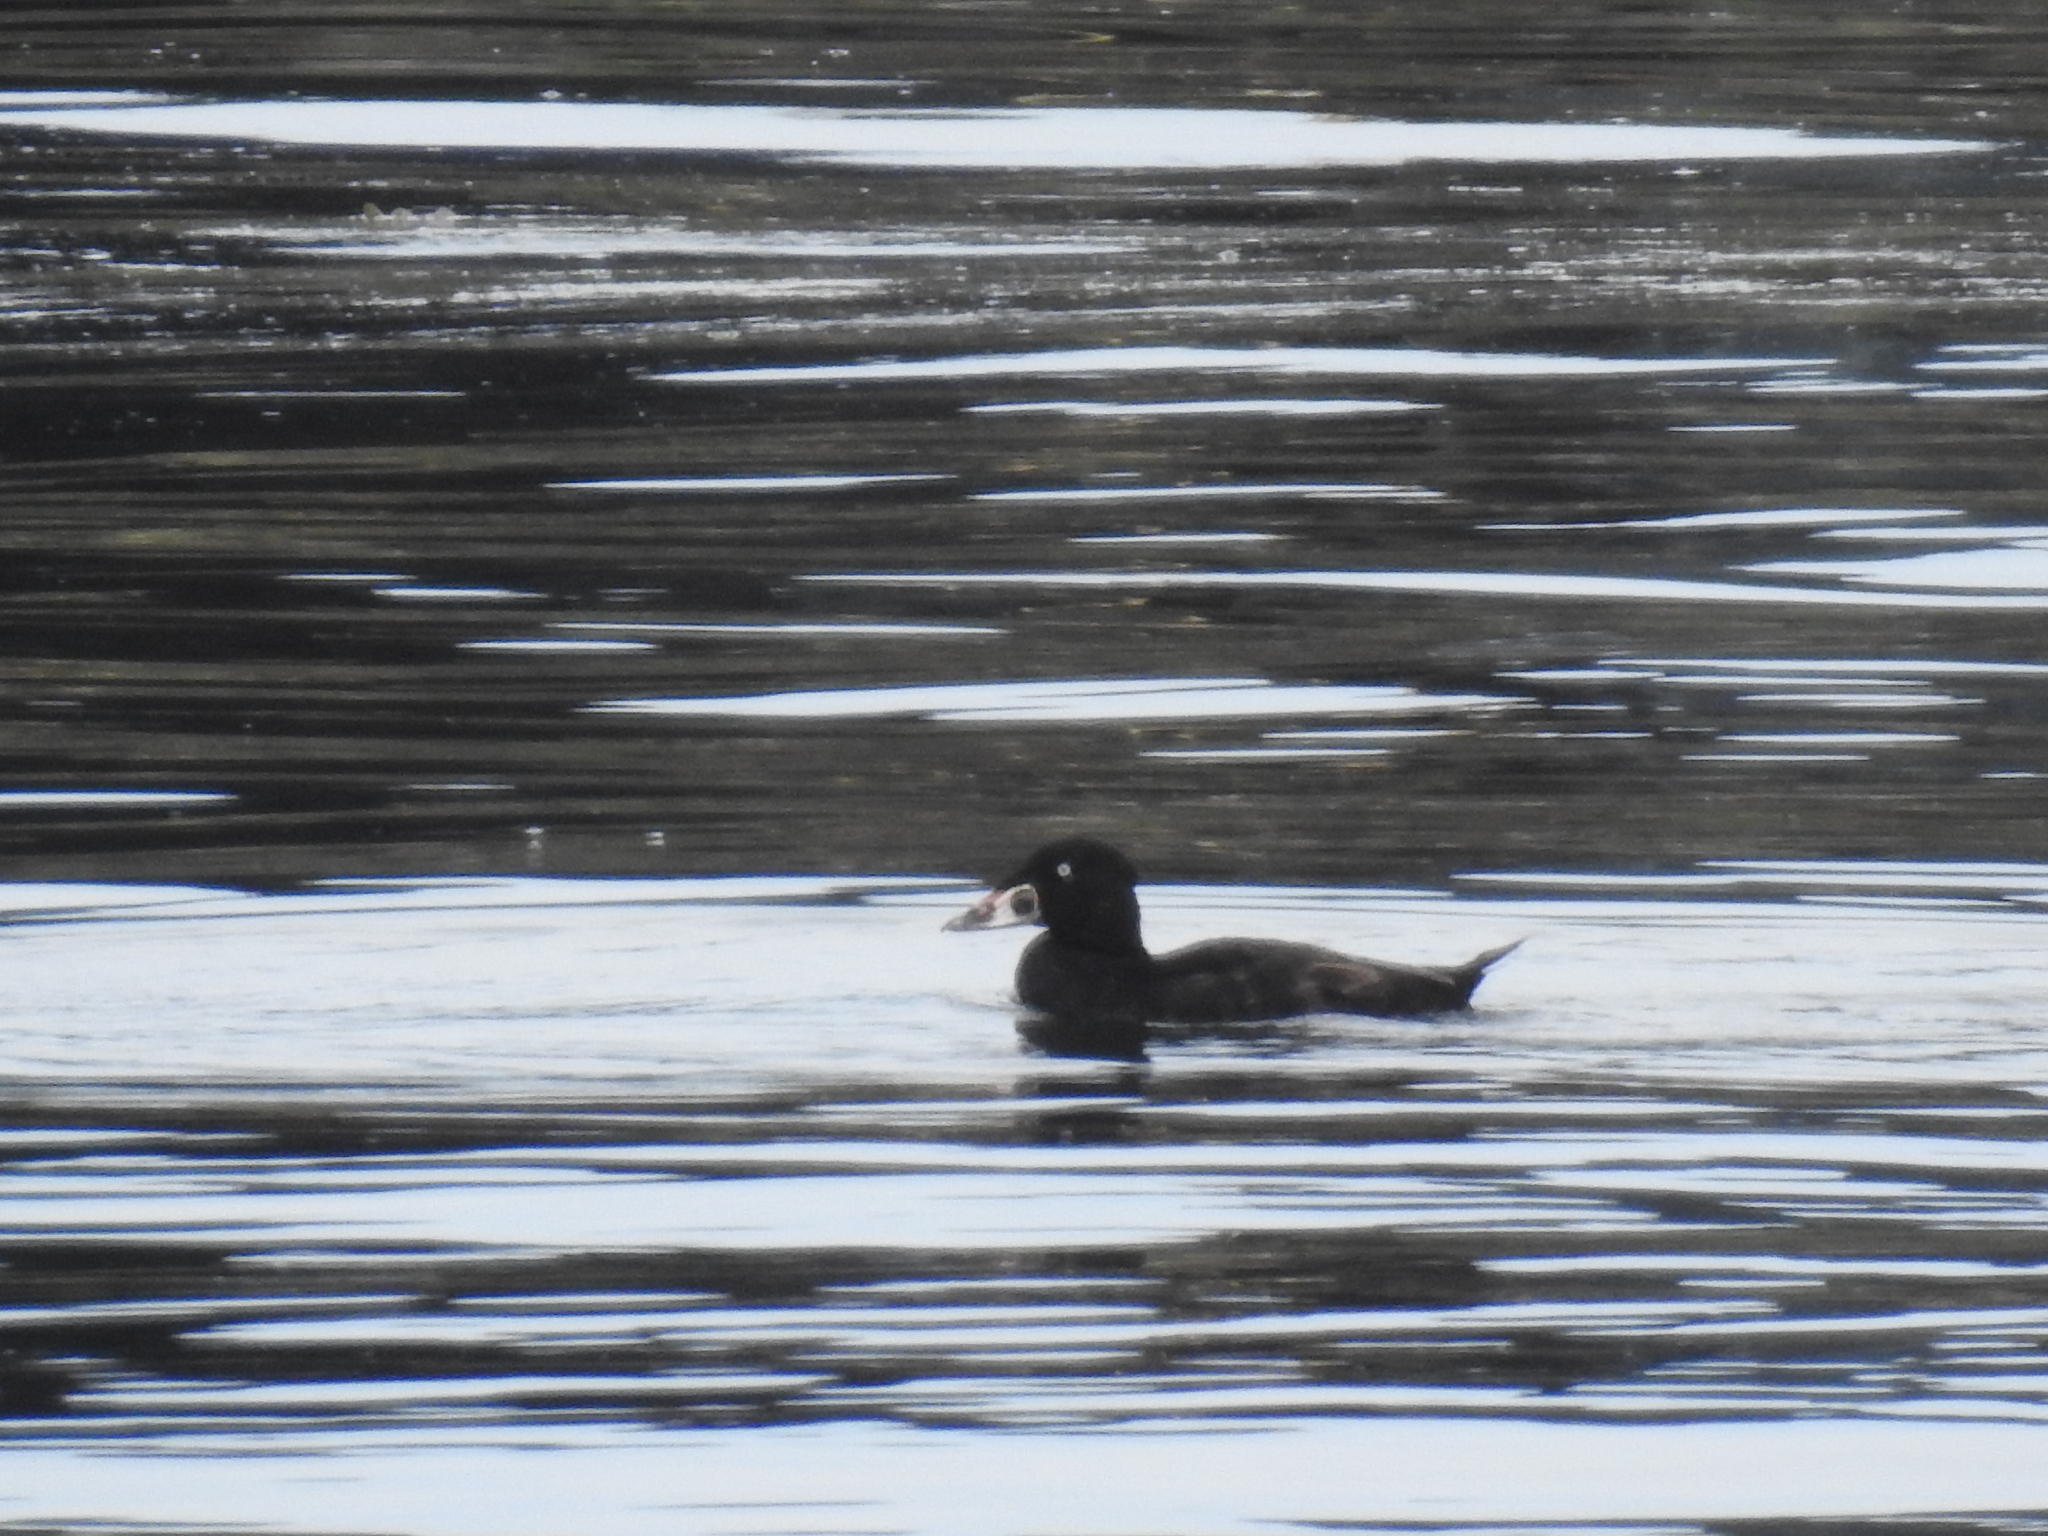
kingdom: Animalia
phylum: Chordata
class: Aves
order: Anseriformes
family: Anatidae
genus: Melanitta
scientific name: Melanitta perspicillata
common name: Surf scoter
